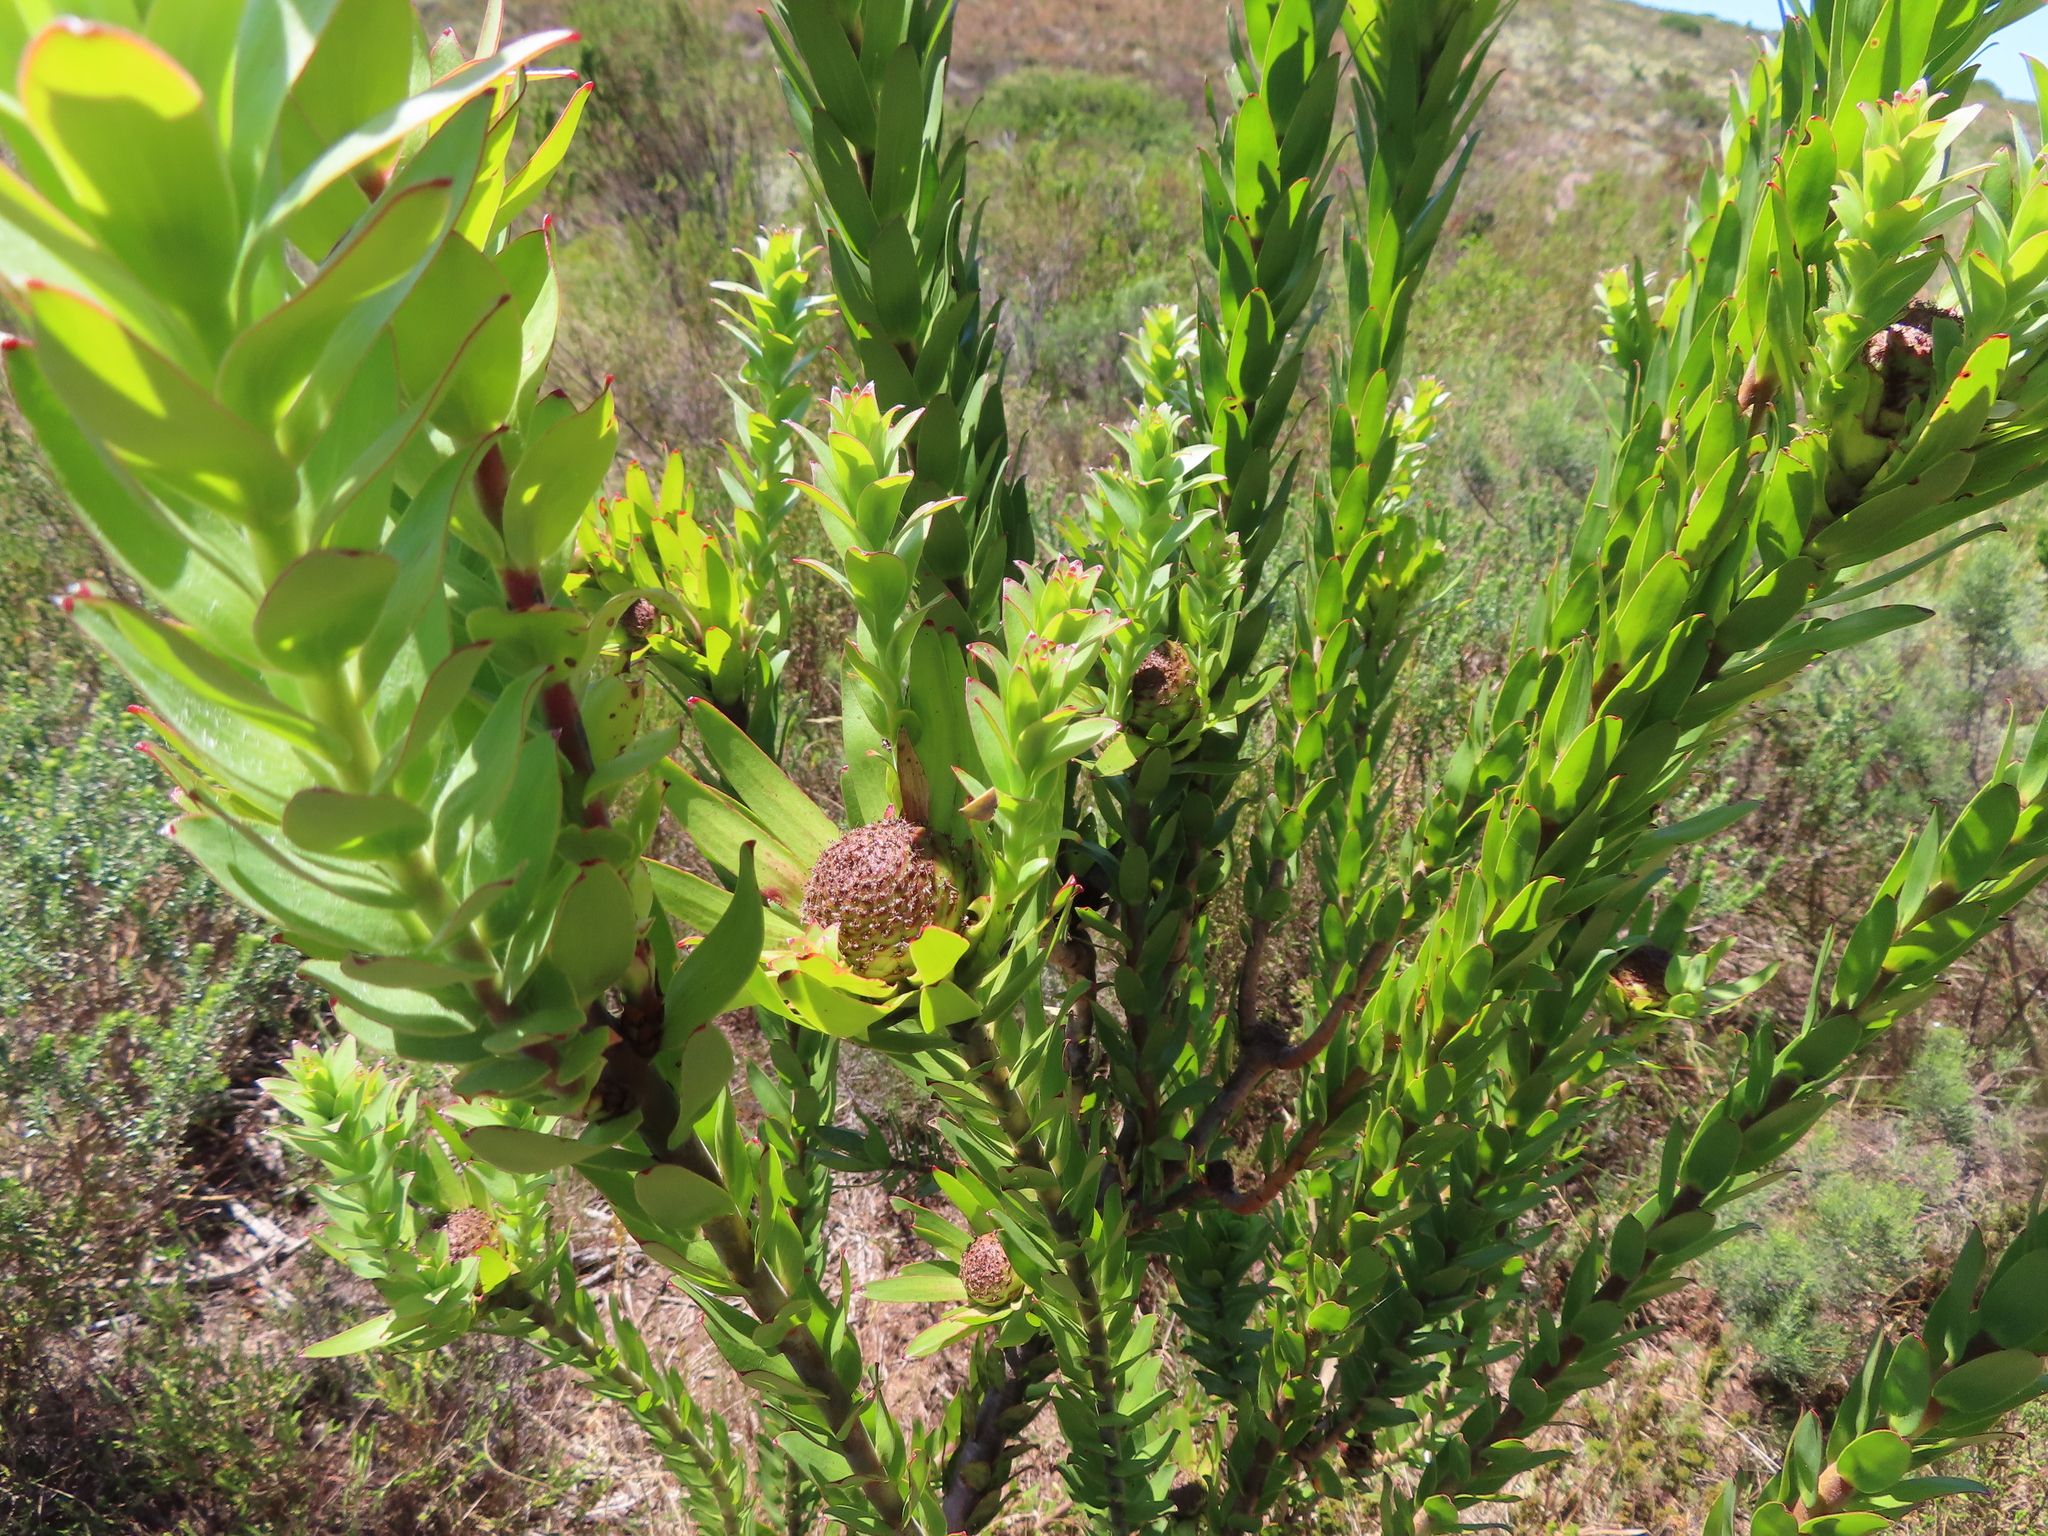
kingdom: Plantae
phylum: Tracheophyta
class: Magnoliopsida
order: Proteales
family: Proteaceae
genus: Leucadendron
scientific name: Leucadendron elimense
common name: Elim conebush
